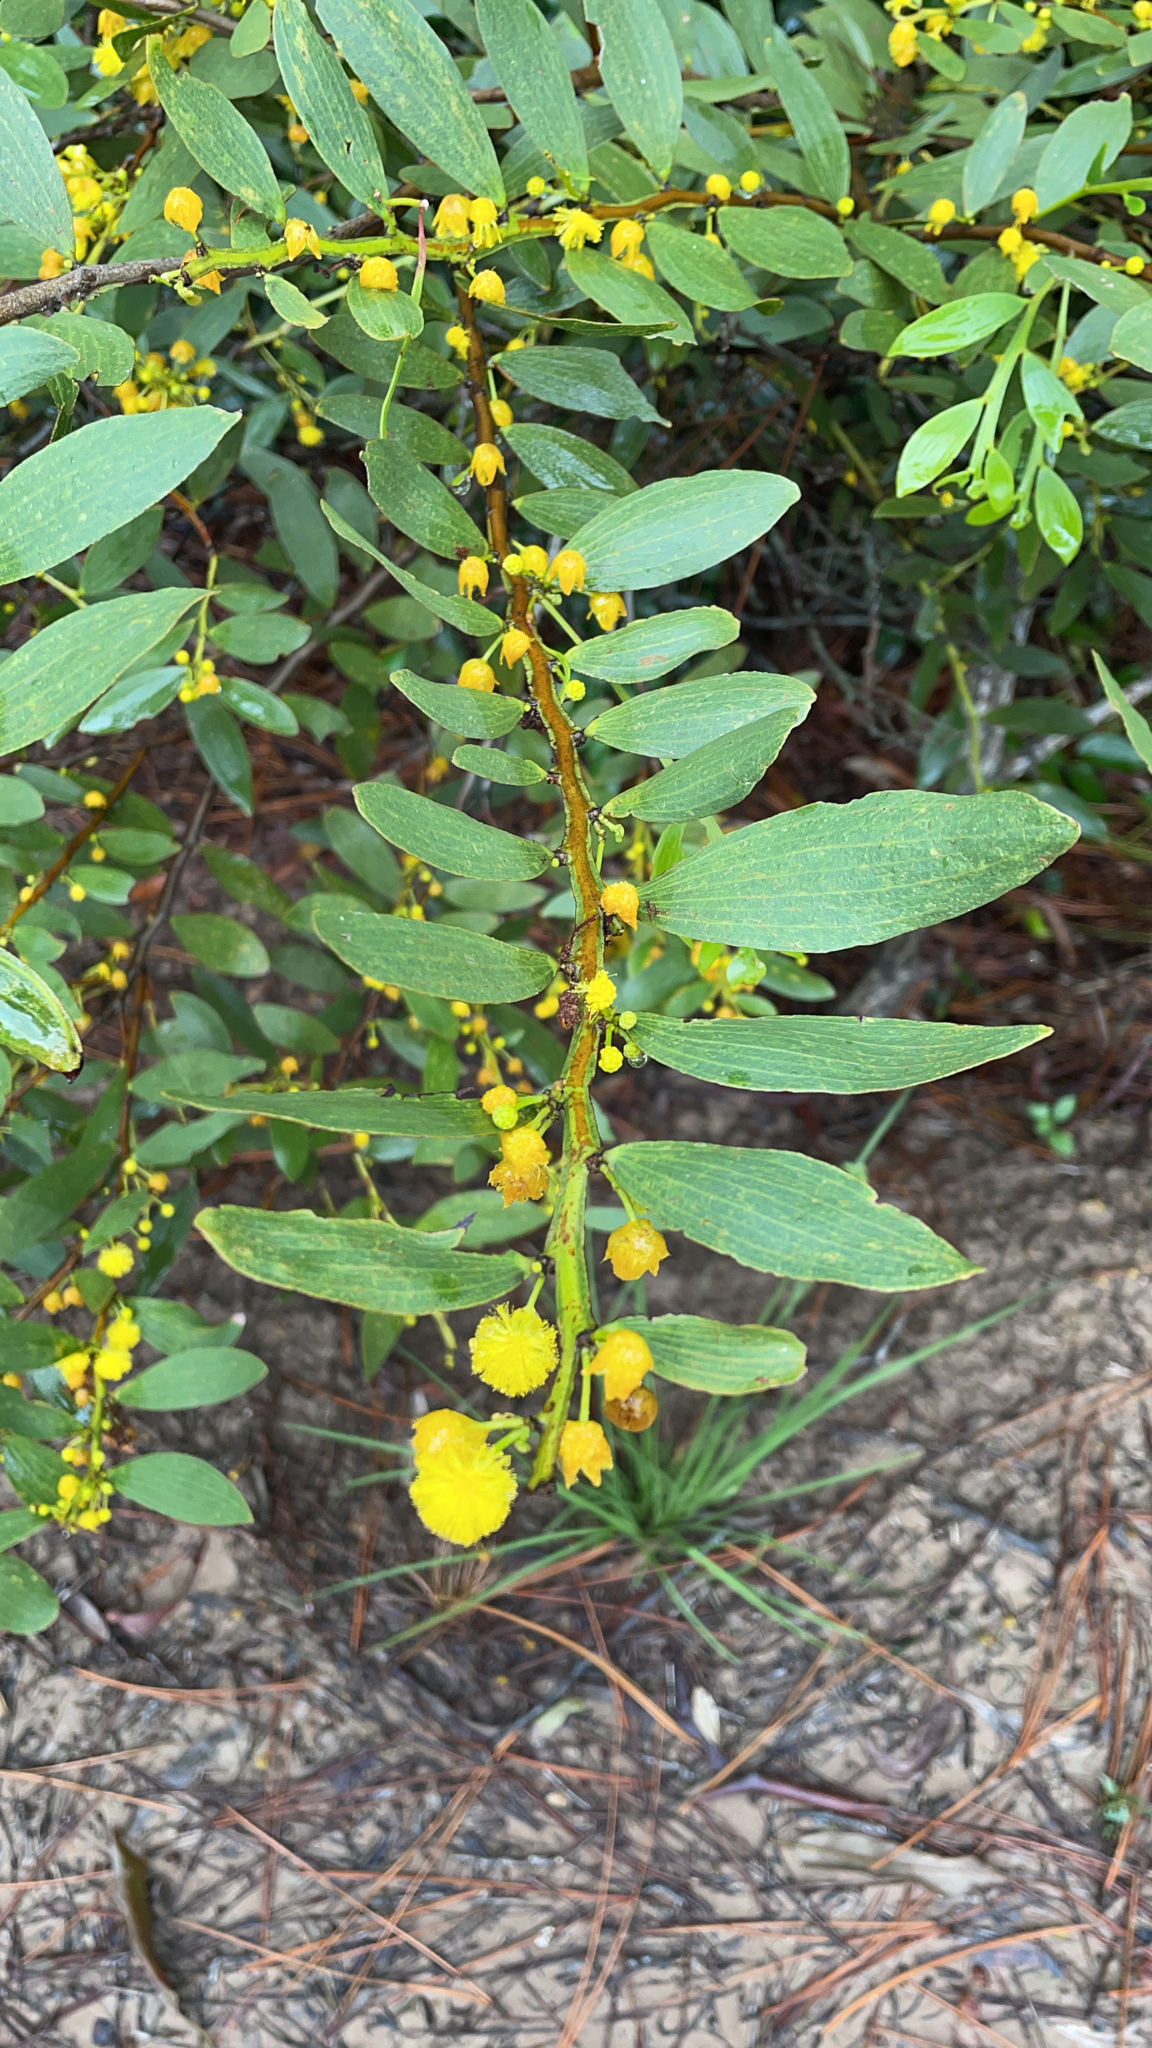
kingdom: Plantae
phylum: Tracheophyta
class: Magnoliopsida
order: Fabales
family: Fabaceae
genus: Acacia
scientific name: Acacia complanata
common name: Flat-stemmed wattle
